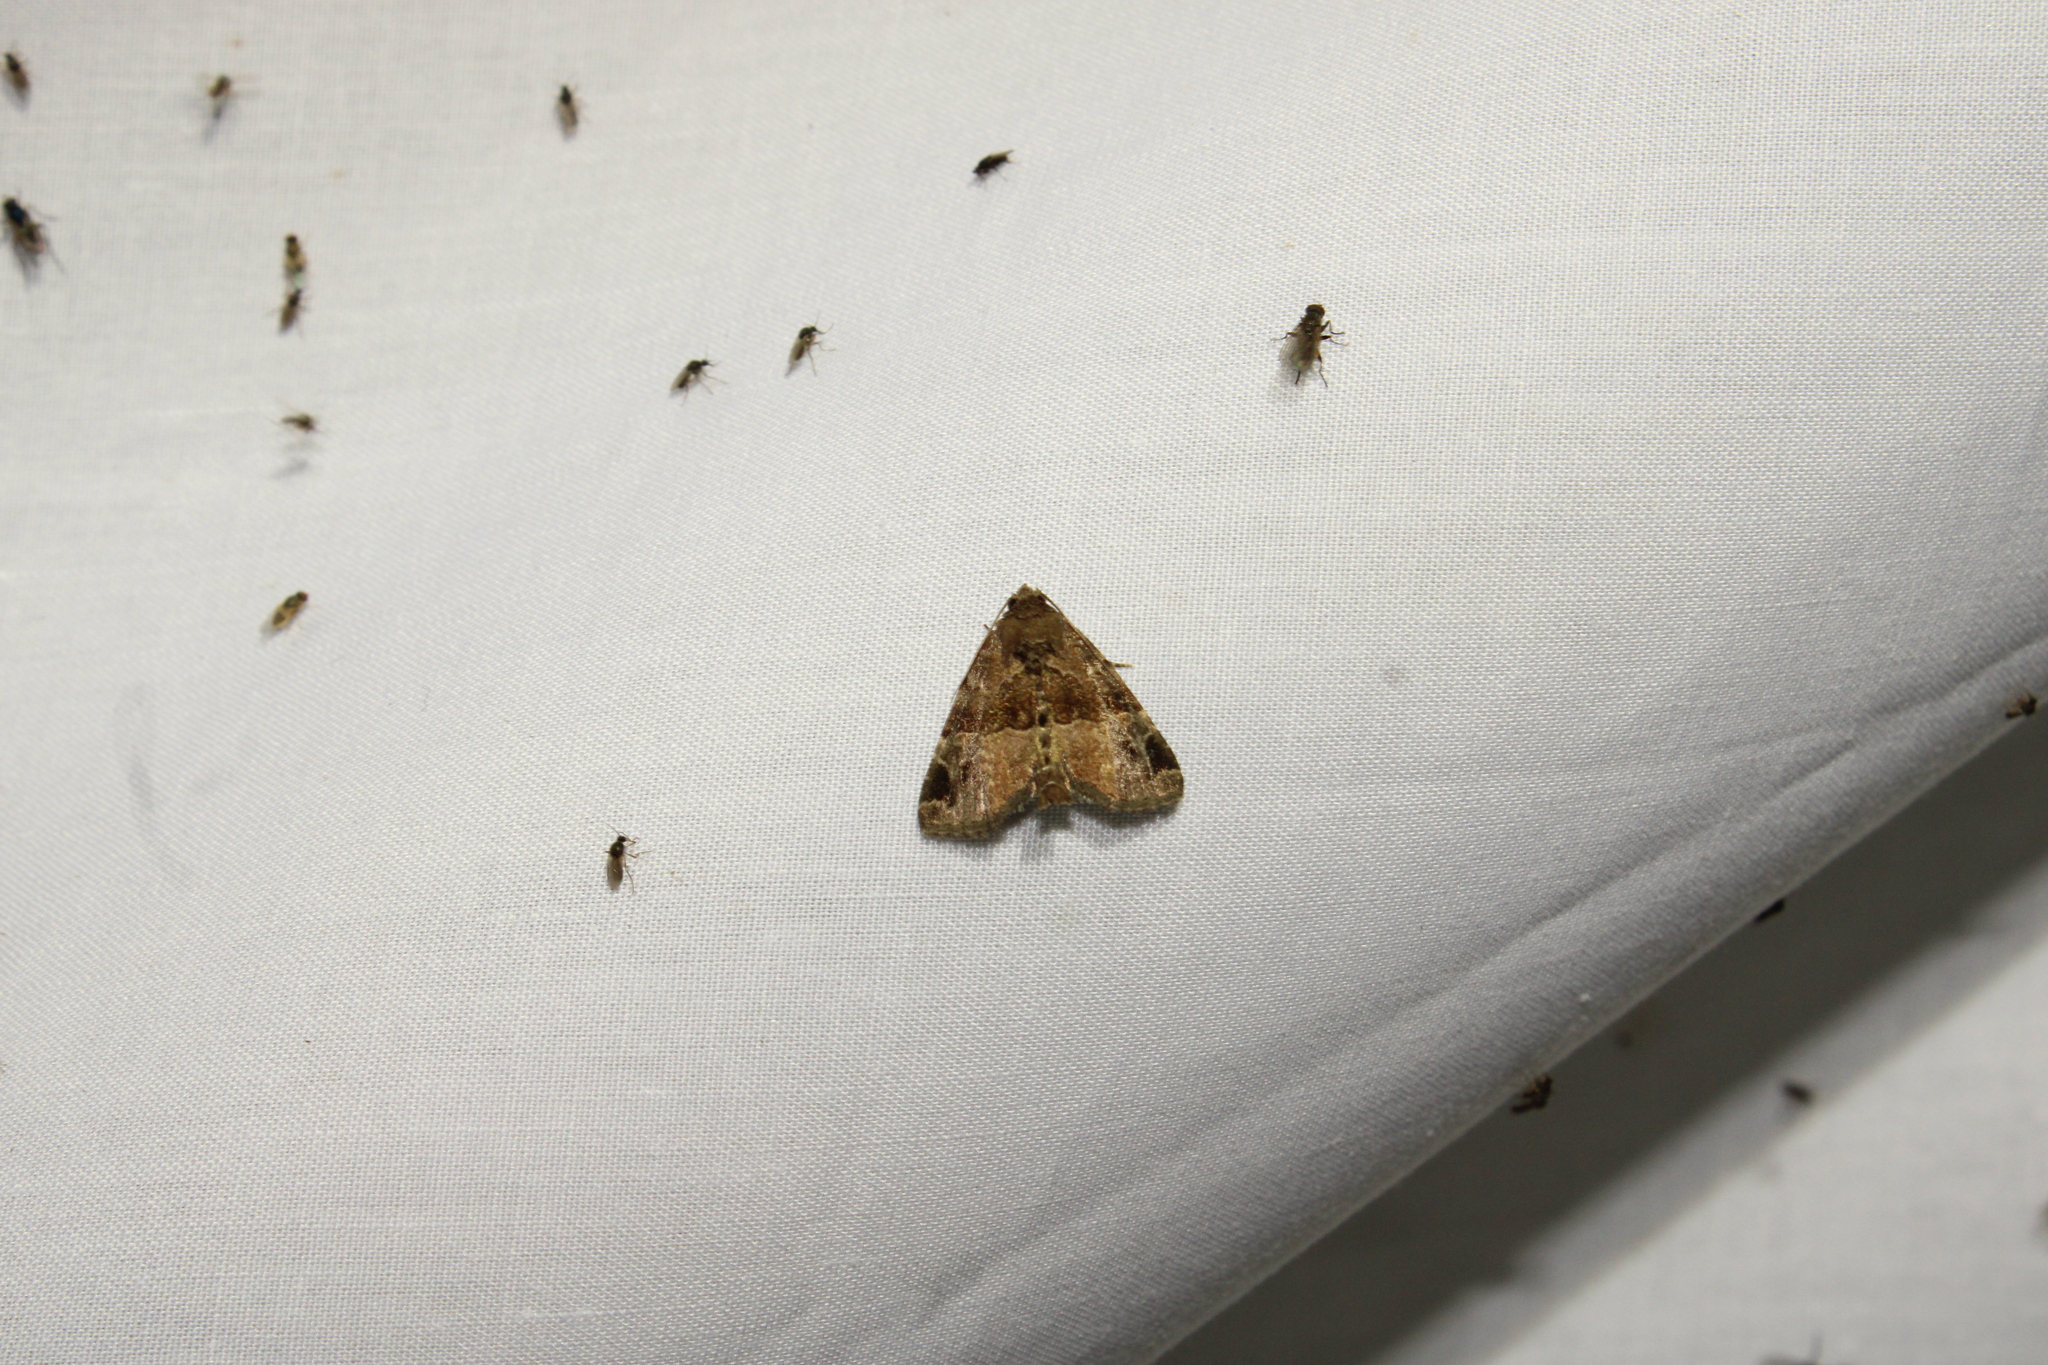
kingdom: Animalia
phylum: Arthropoda
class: Insecta
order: Lepidoptera
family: Noctuidae
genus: Niphonyx
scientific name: Niphonyx segregata
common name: Hops angleshade moth
